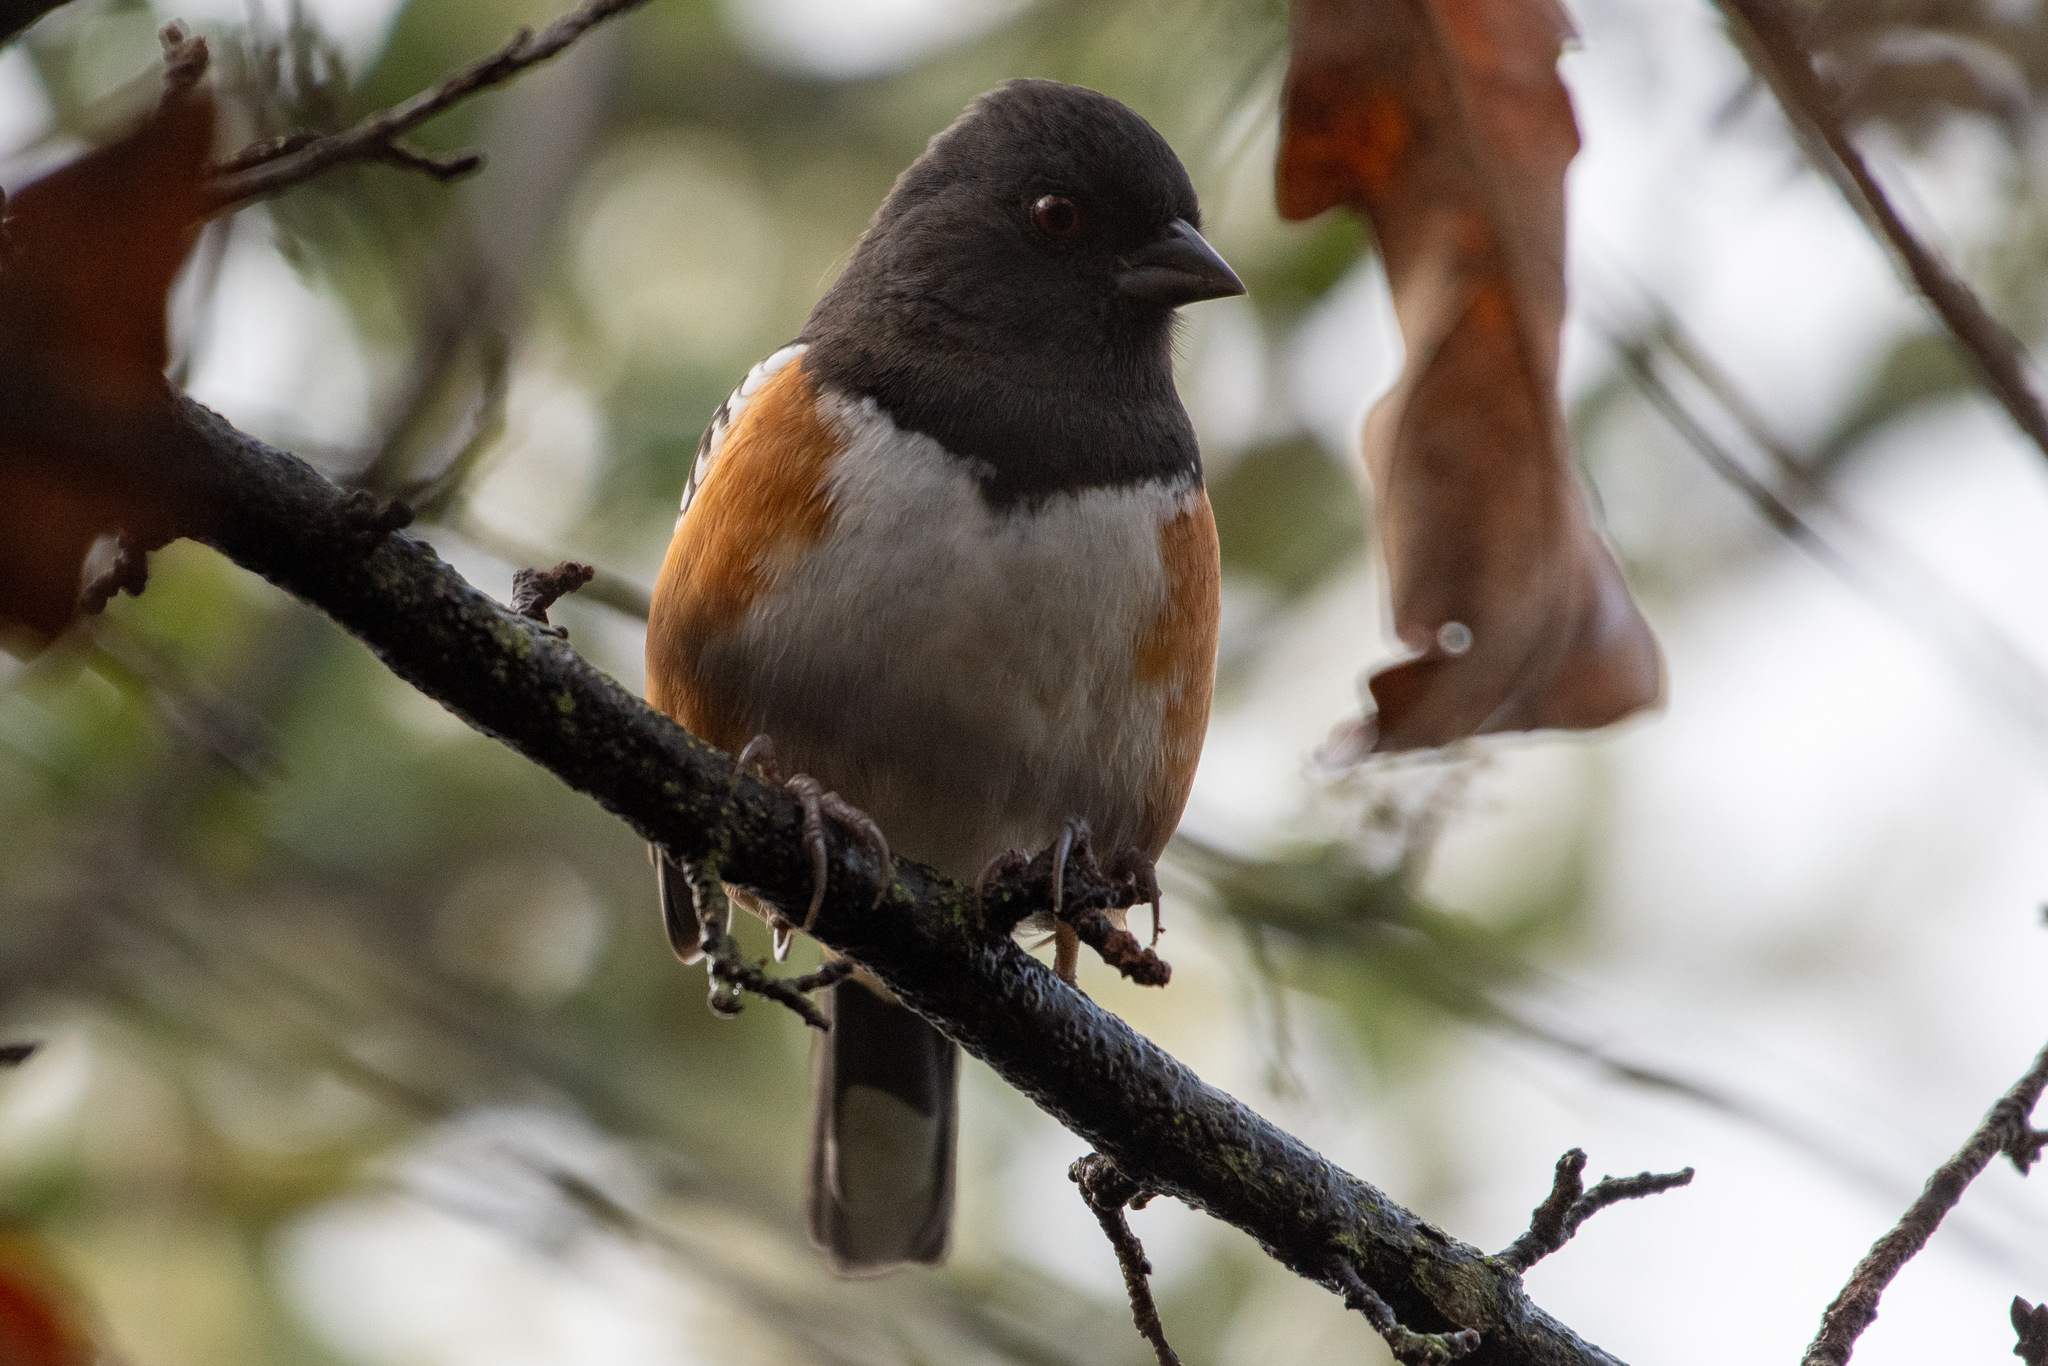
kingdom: Animalia
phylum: Chordata
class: Aves
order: Passeriformes
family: Passerellidae
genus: Pipilo
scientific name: Pipilo maculatus
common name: Spotted towhee
